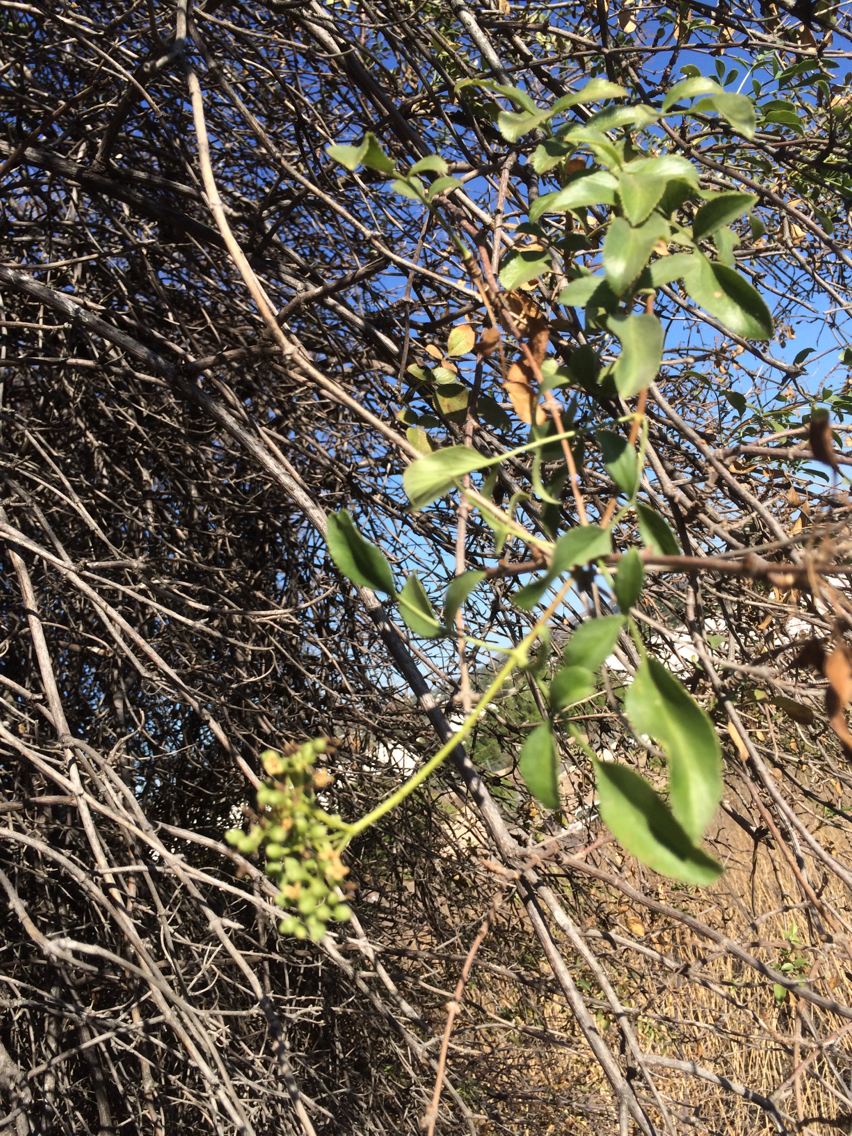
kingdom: Plantae
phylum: Tracheophyta
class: Magnoliopsida
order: Dipsacales
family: Viburnaceae
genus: Sambucus
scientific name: Sambucus cerulea
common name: Blue elder
